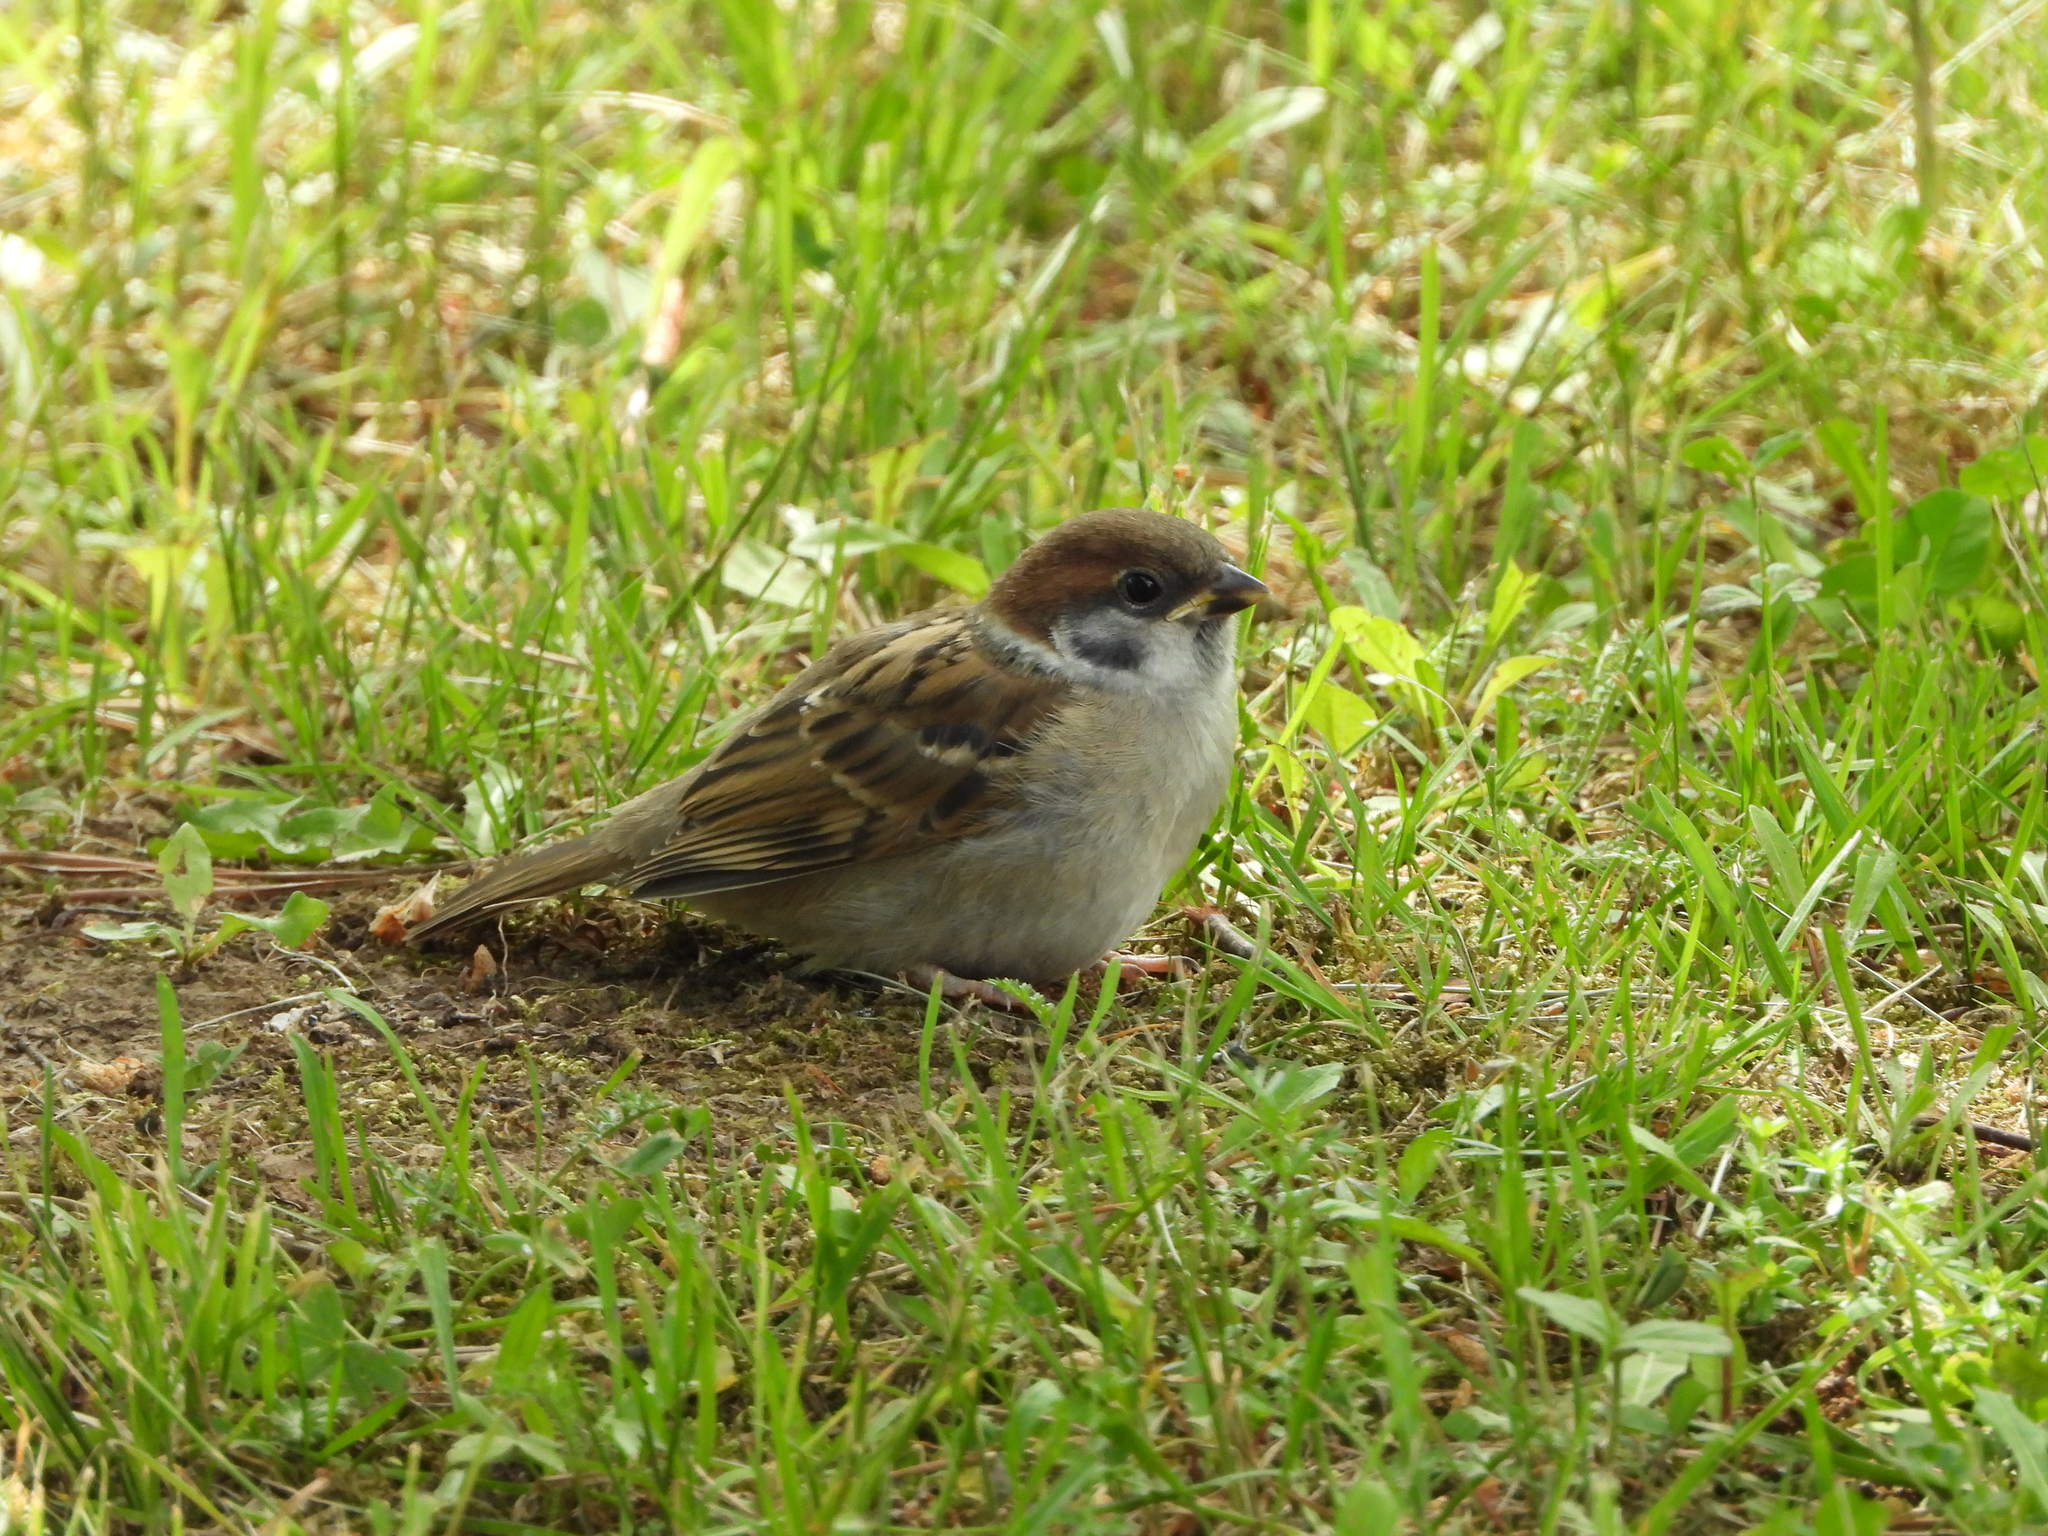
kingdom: Animalia
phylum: Chordata
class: Aves
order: Passeriformes
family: Passeridae
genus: Passer
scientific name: Passer montanus
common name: Eurasian tree sparrow
